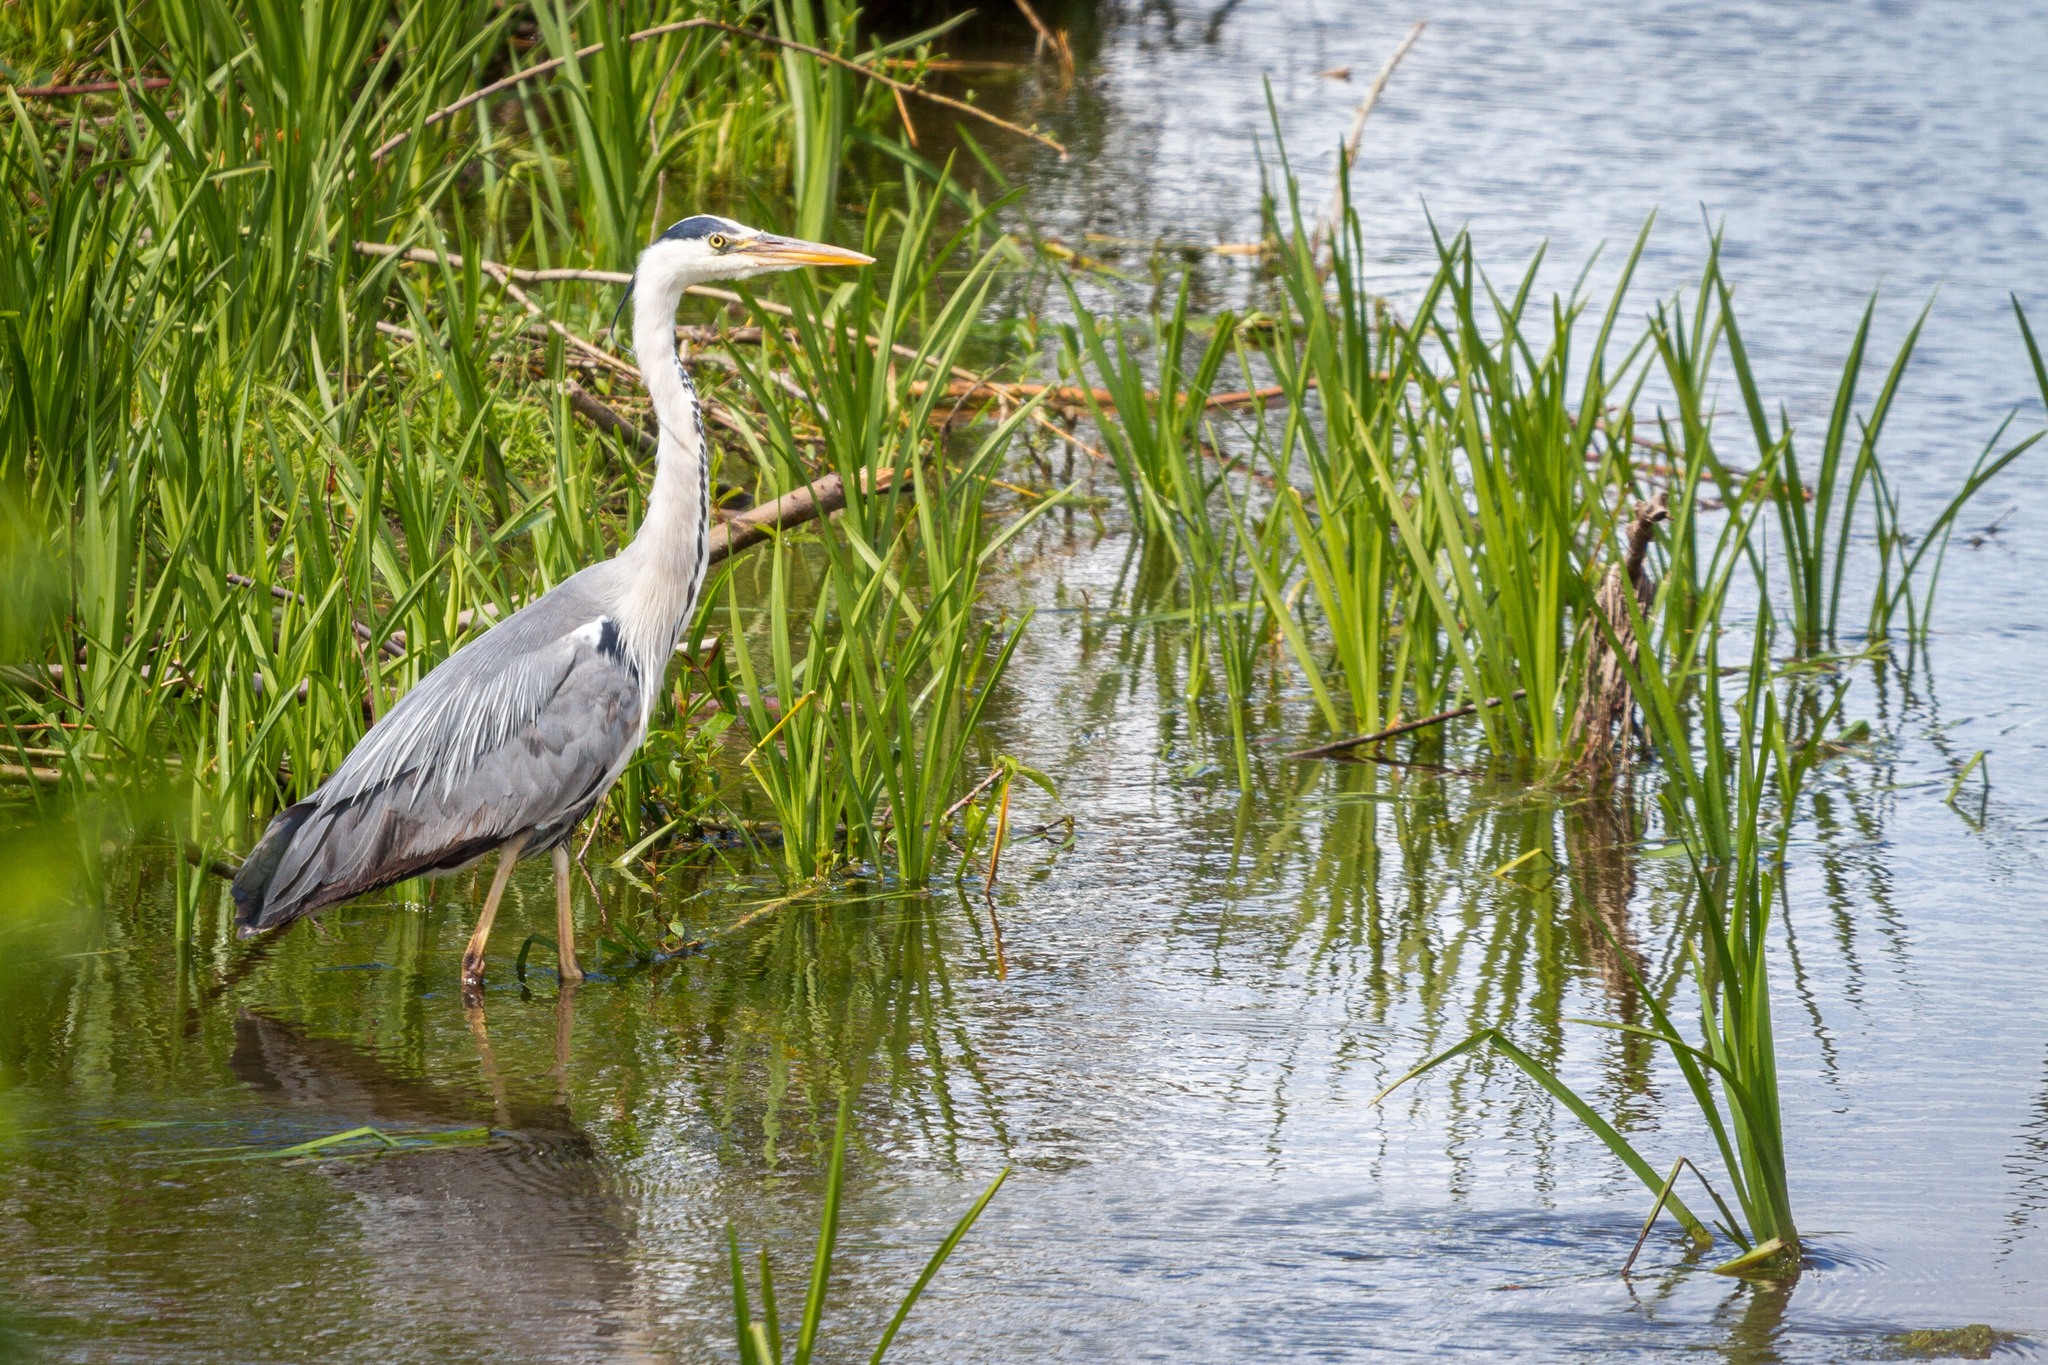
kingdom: Animalia
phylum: Chordata
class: Aves
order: Pelecaniformes
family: Ardeidae
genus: Ardea
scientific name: Ardea cinerea
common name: Grey heron
